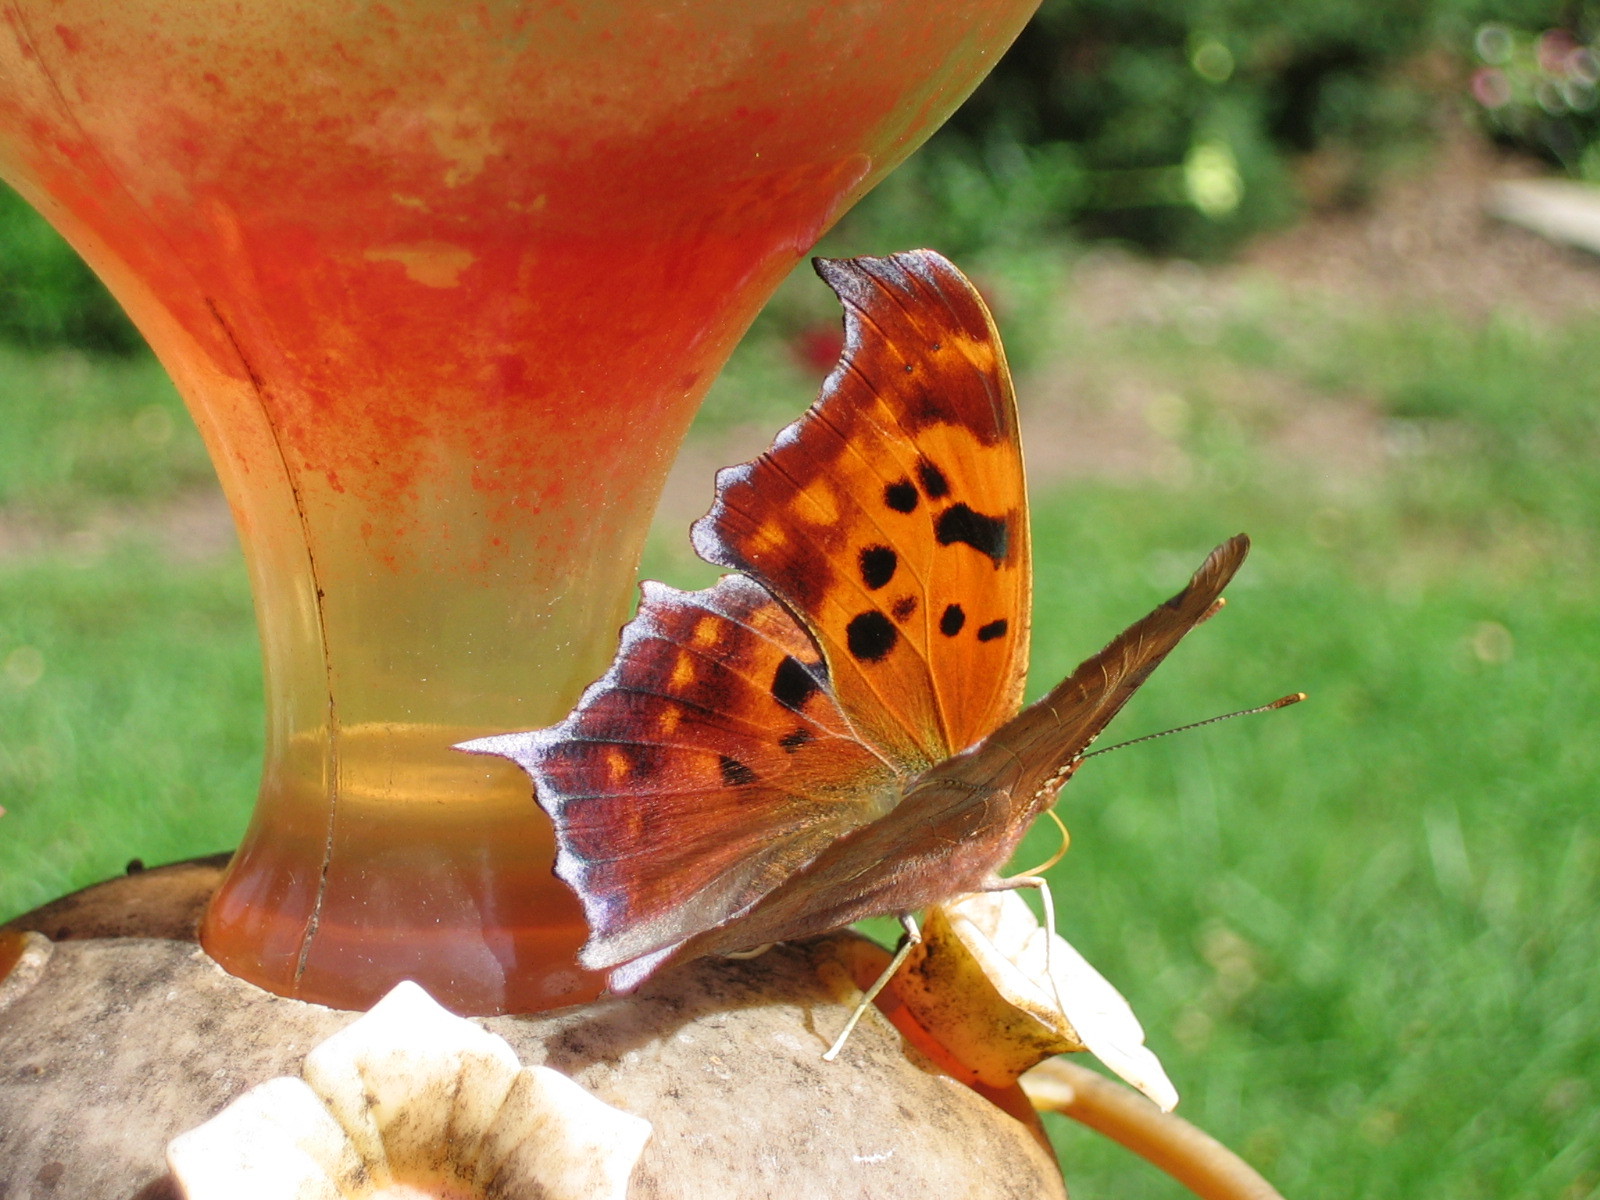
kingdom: Animalia
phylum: Arthropoda
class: Insecta
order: Lepidoptera
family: Nymphalidae
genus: Polygonia
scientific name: Polygonia interrogationis
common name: Question mark
